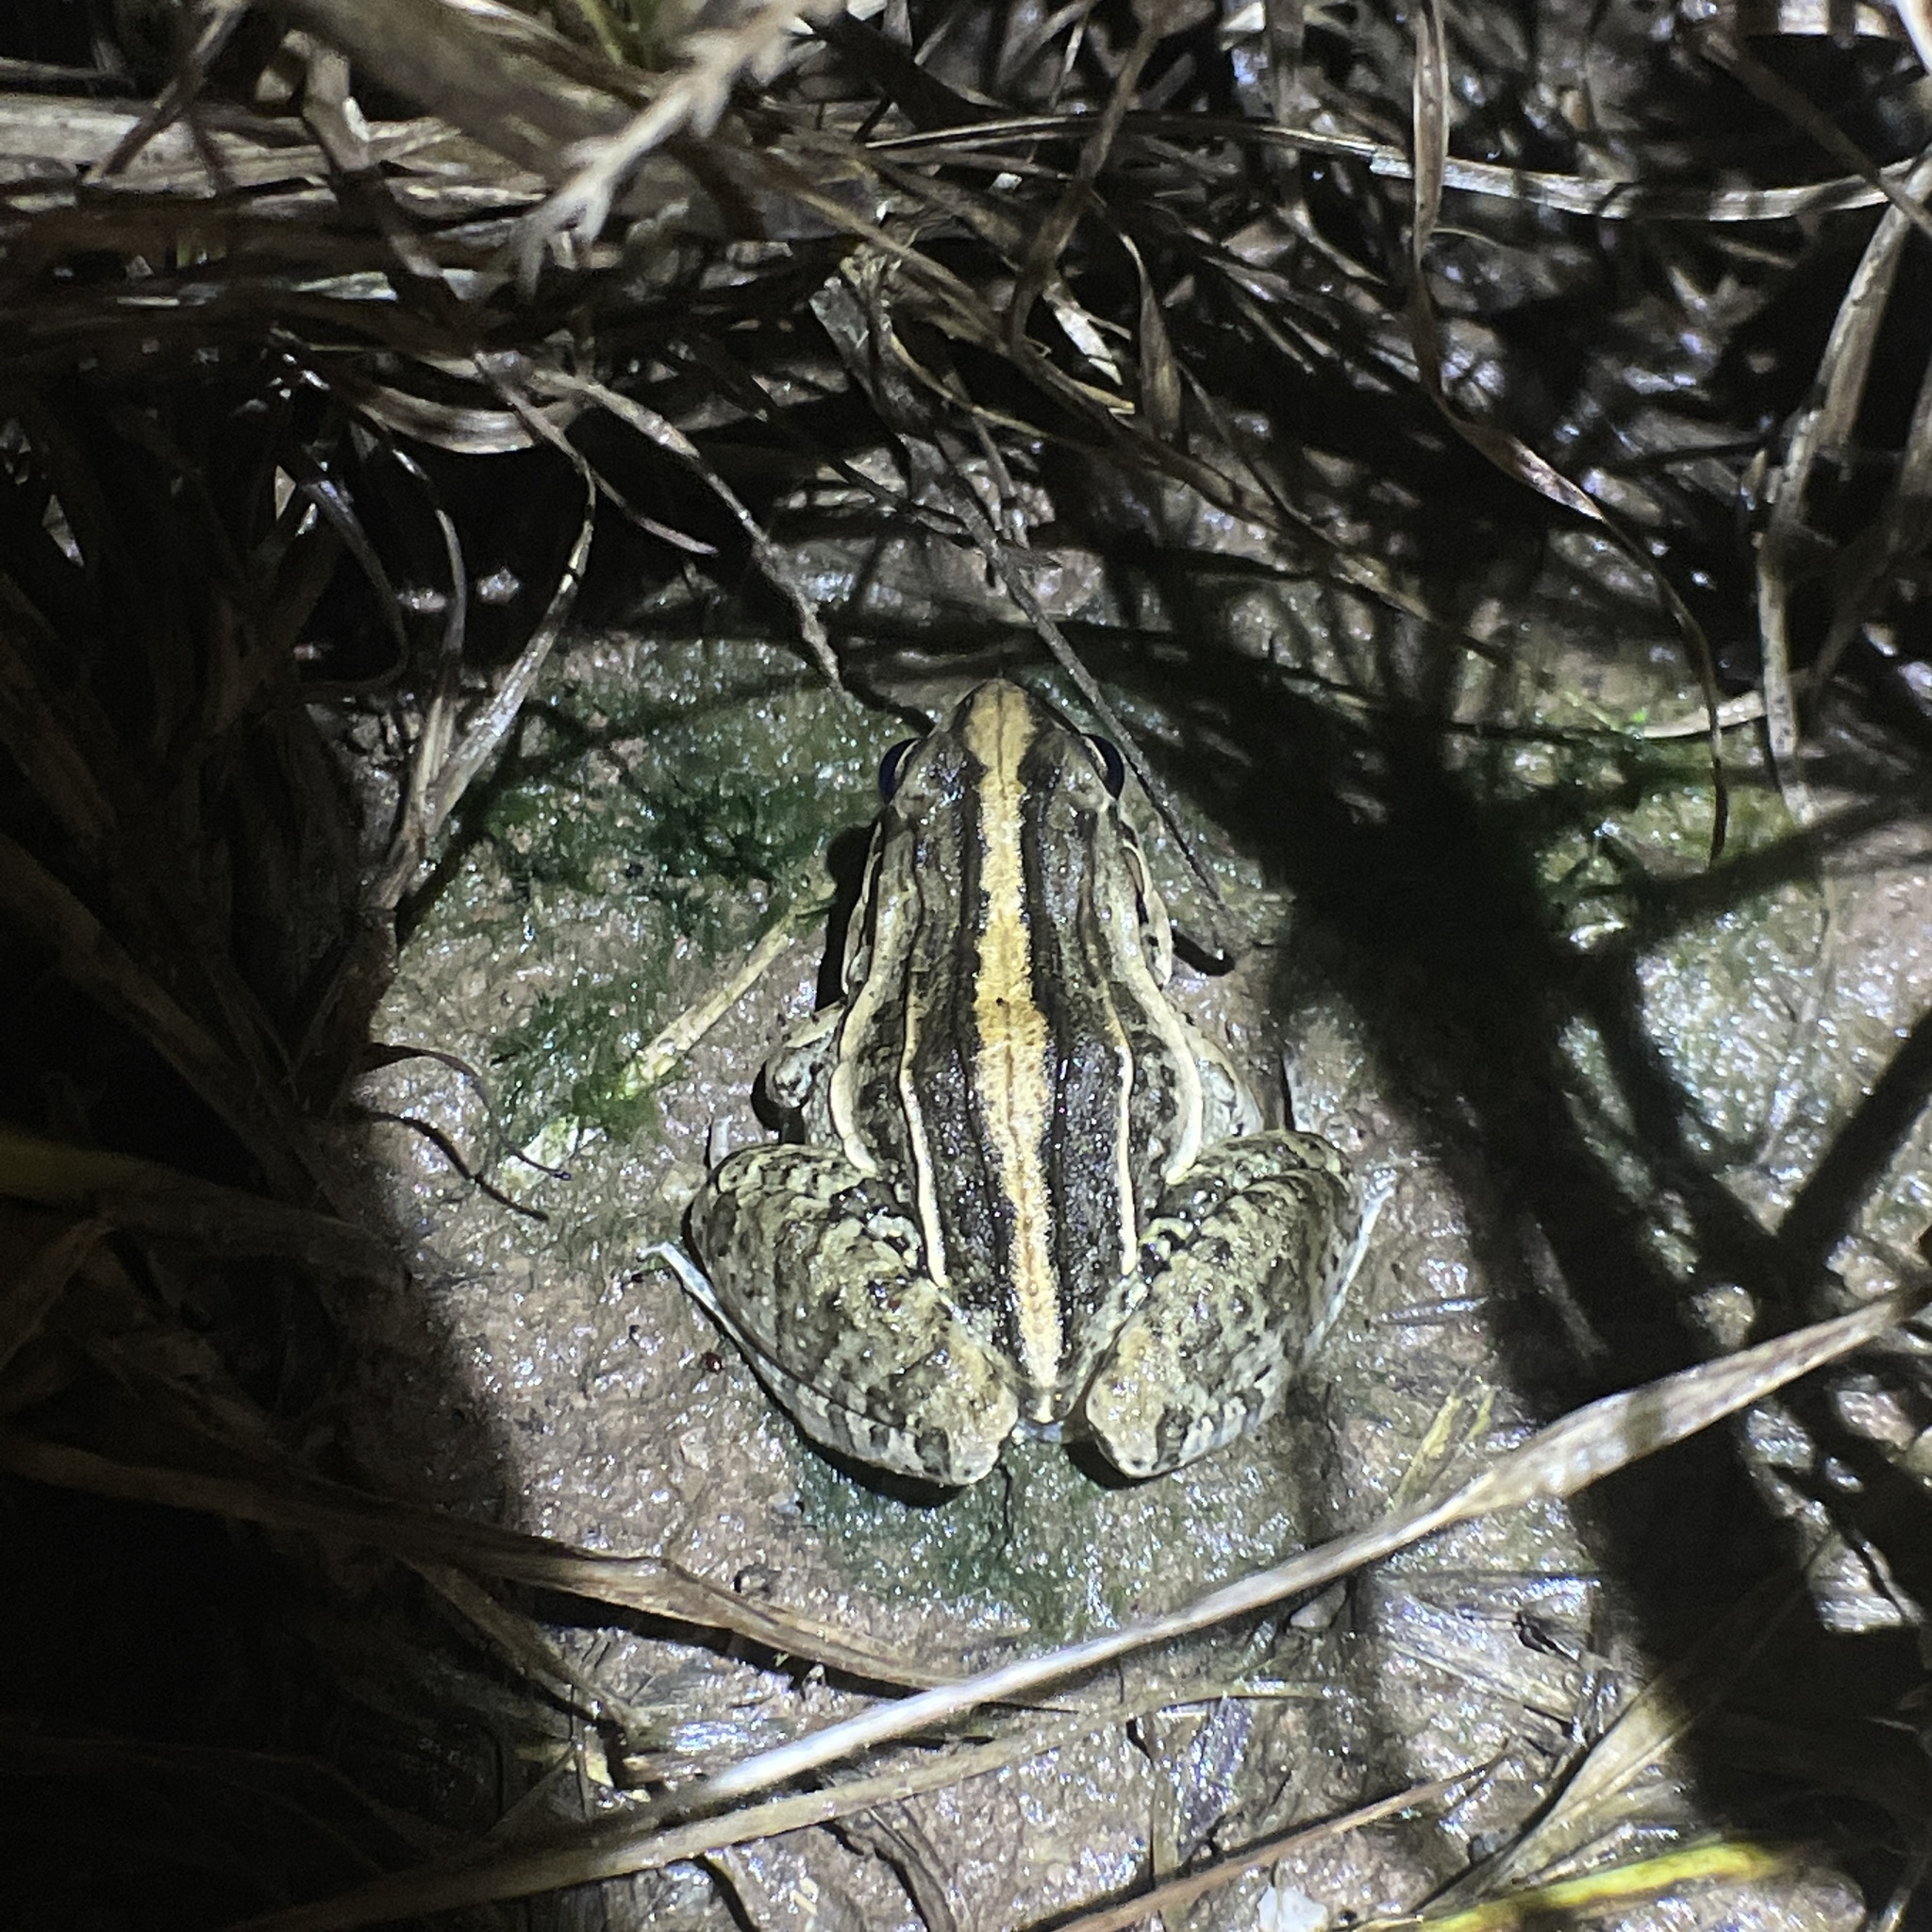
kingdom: Animalia
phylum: Chordata
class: Amphibia
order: Anura
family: Leptodactylidae
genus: Leptodactylus
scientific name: Leptodactylus fuscus
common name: Rufous frog
